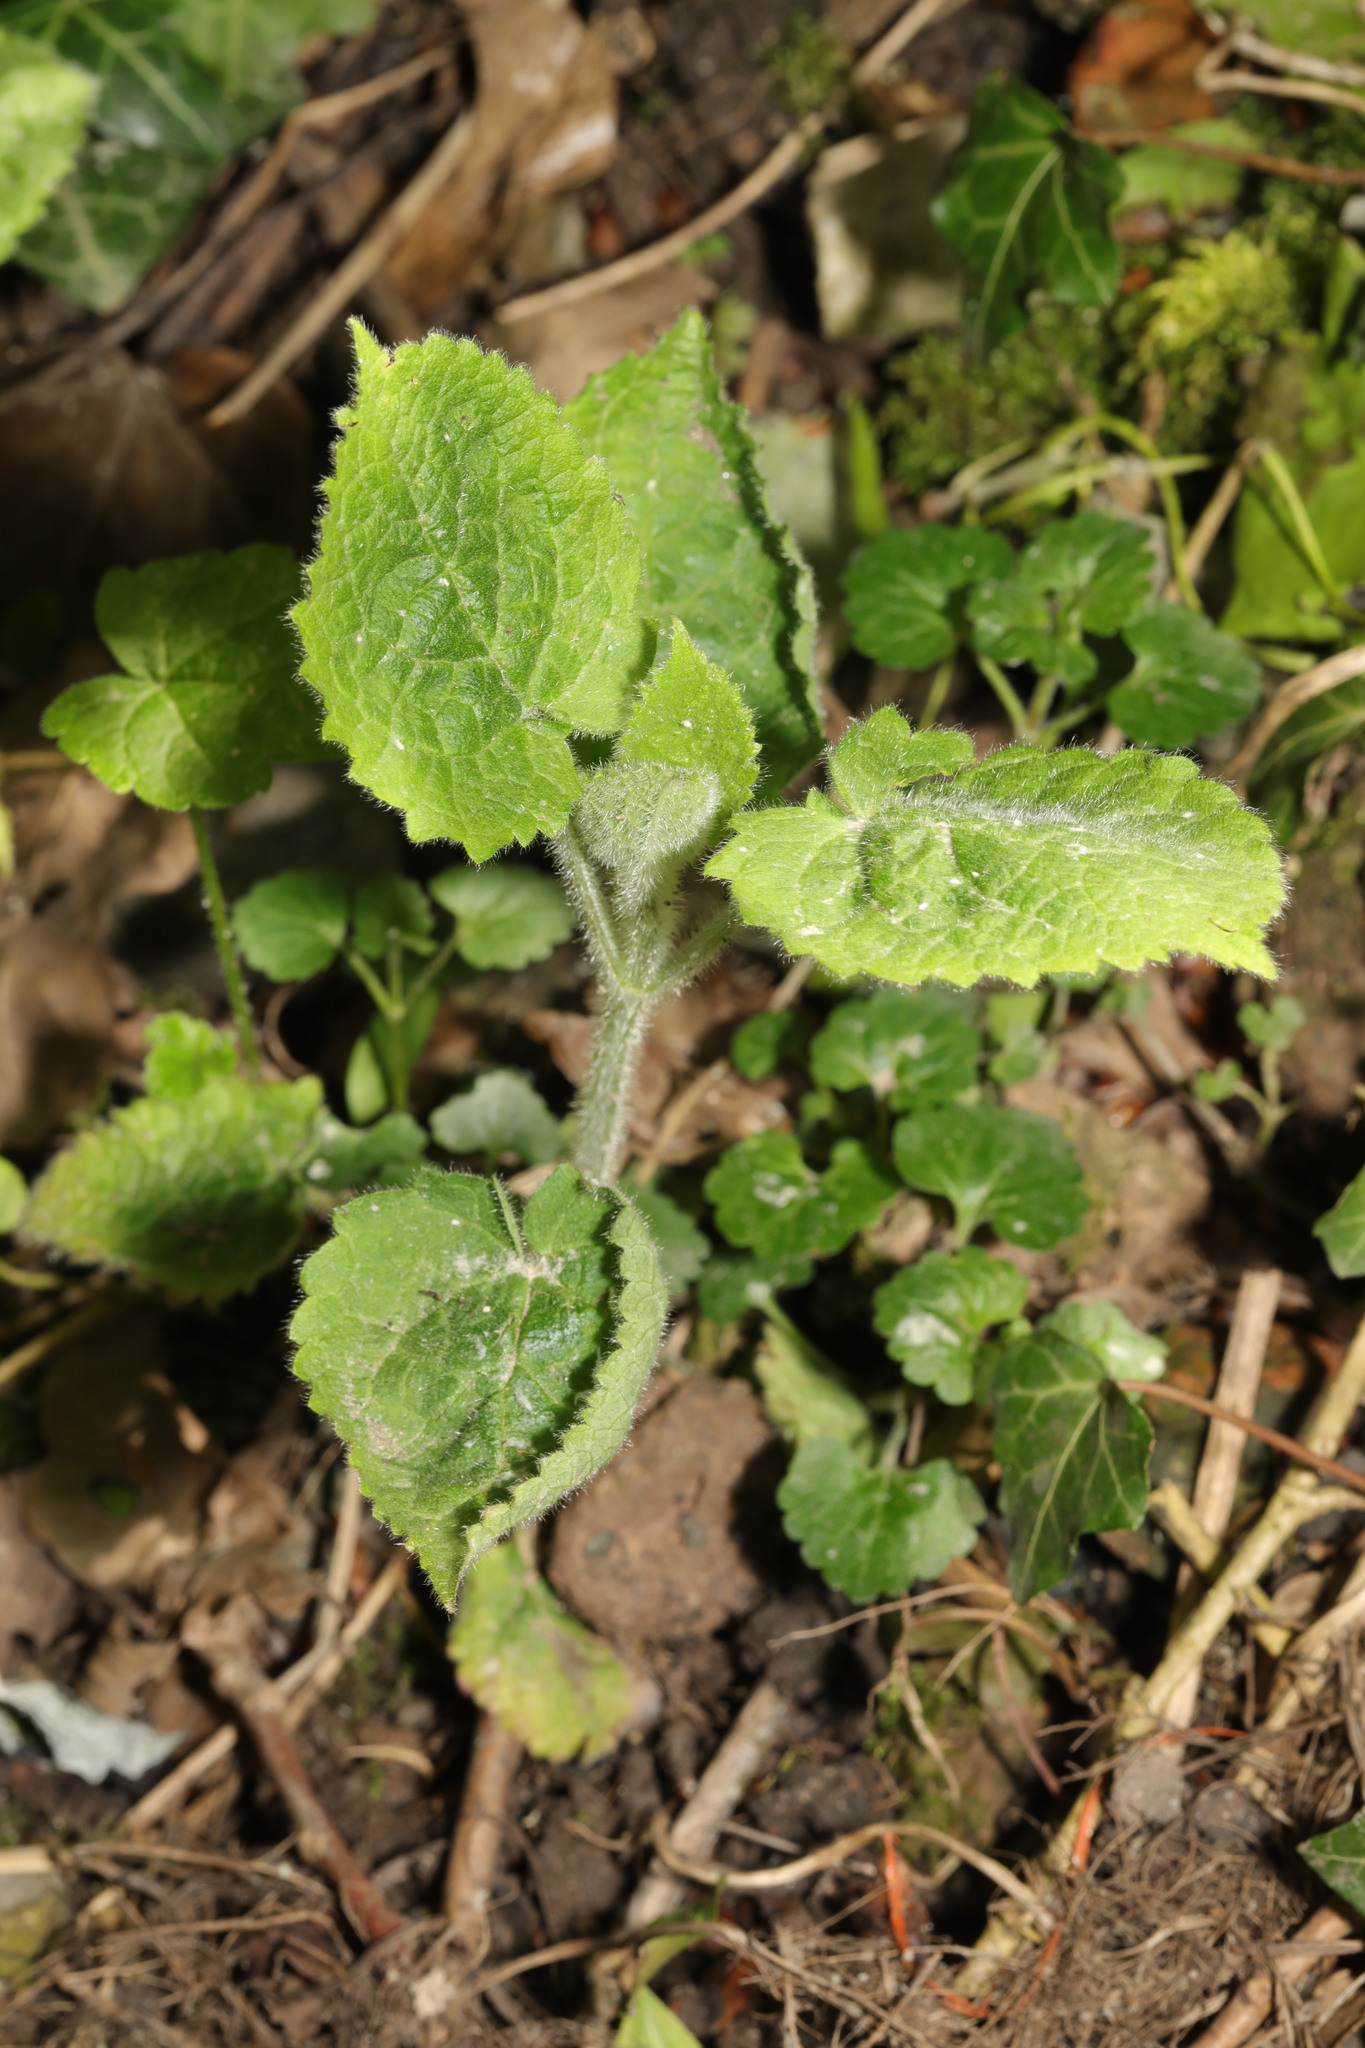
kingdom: Plantae
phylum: Tracheophyta
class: Magnoliopsida
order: Lamiales
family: Lamiaceae
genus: Stachys
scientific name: Stachys sylvatica
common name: Hedge woundwort
